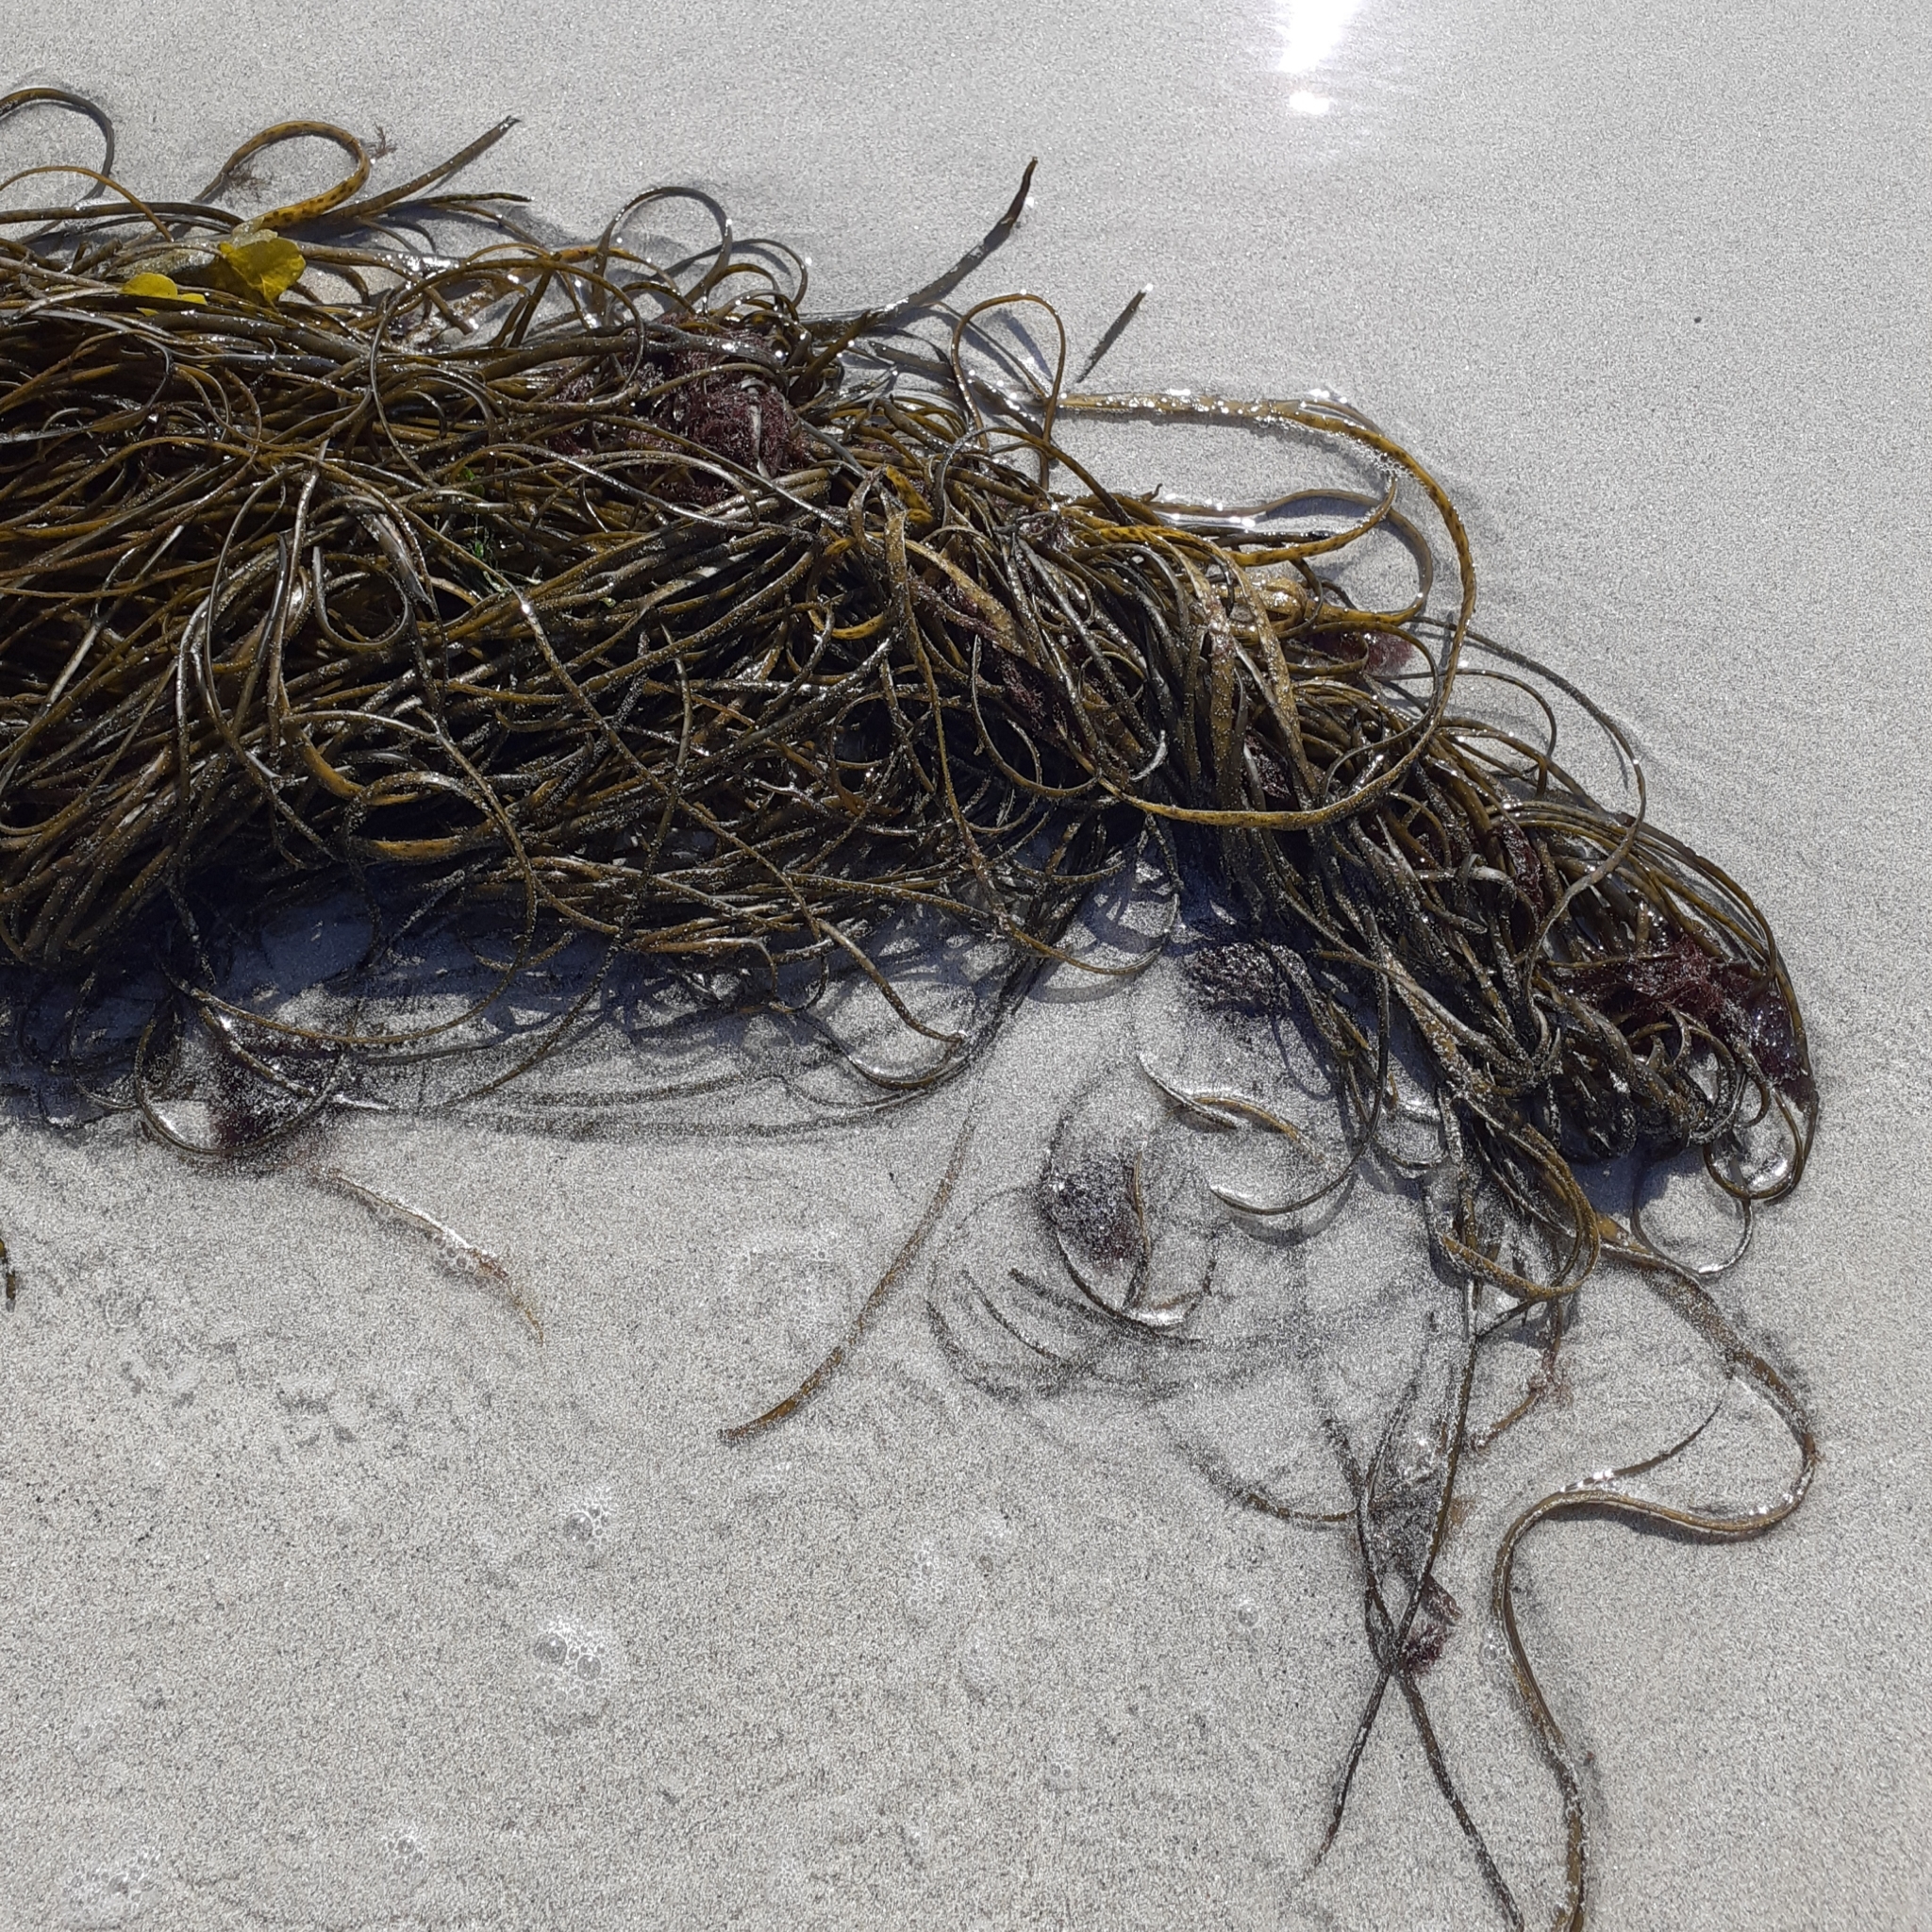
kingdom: Chromista
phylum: Ochrophyta
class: Phaeophyceae
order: Fucales
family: Himanthaliaceae
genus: Himanthalia
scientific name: Himanthalia elongata
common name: Sea-thong
